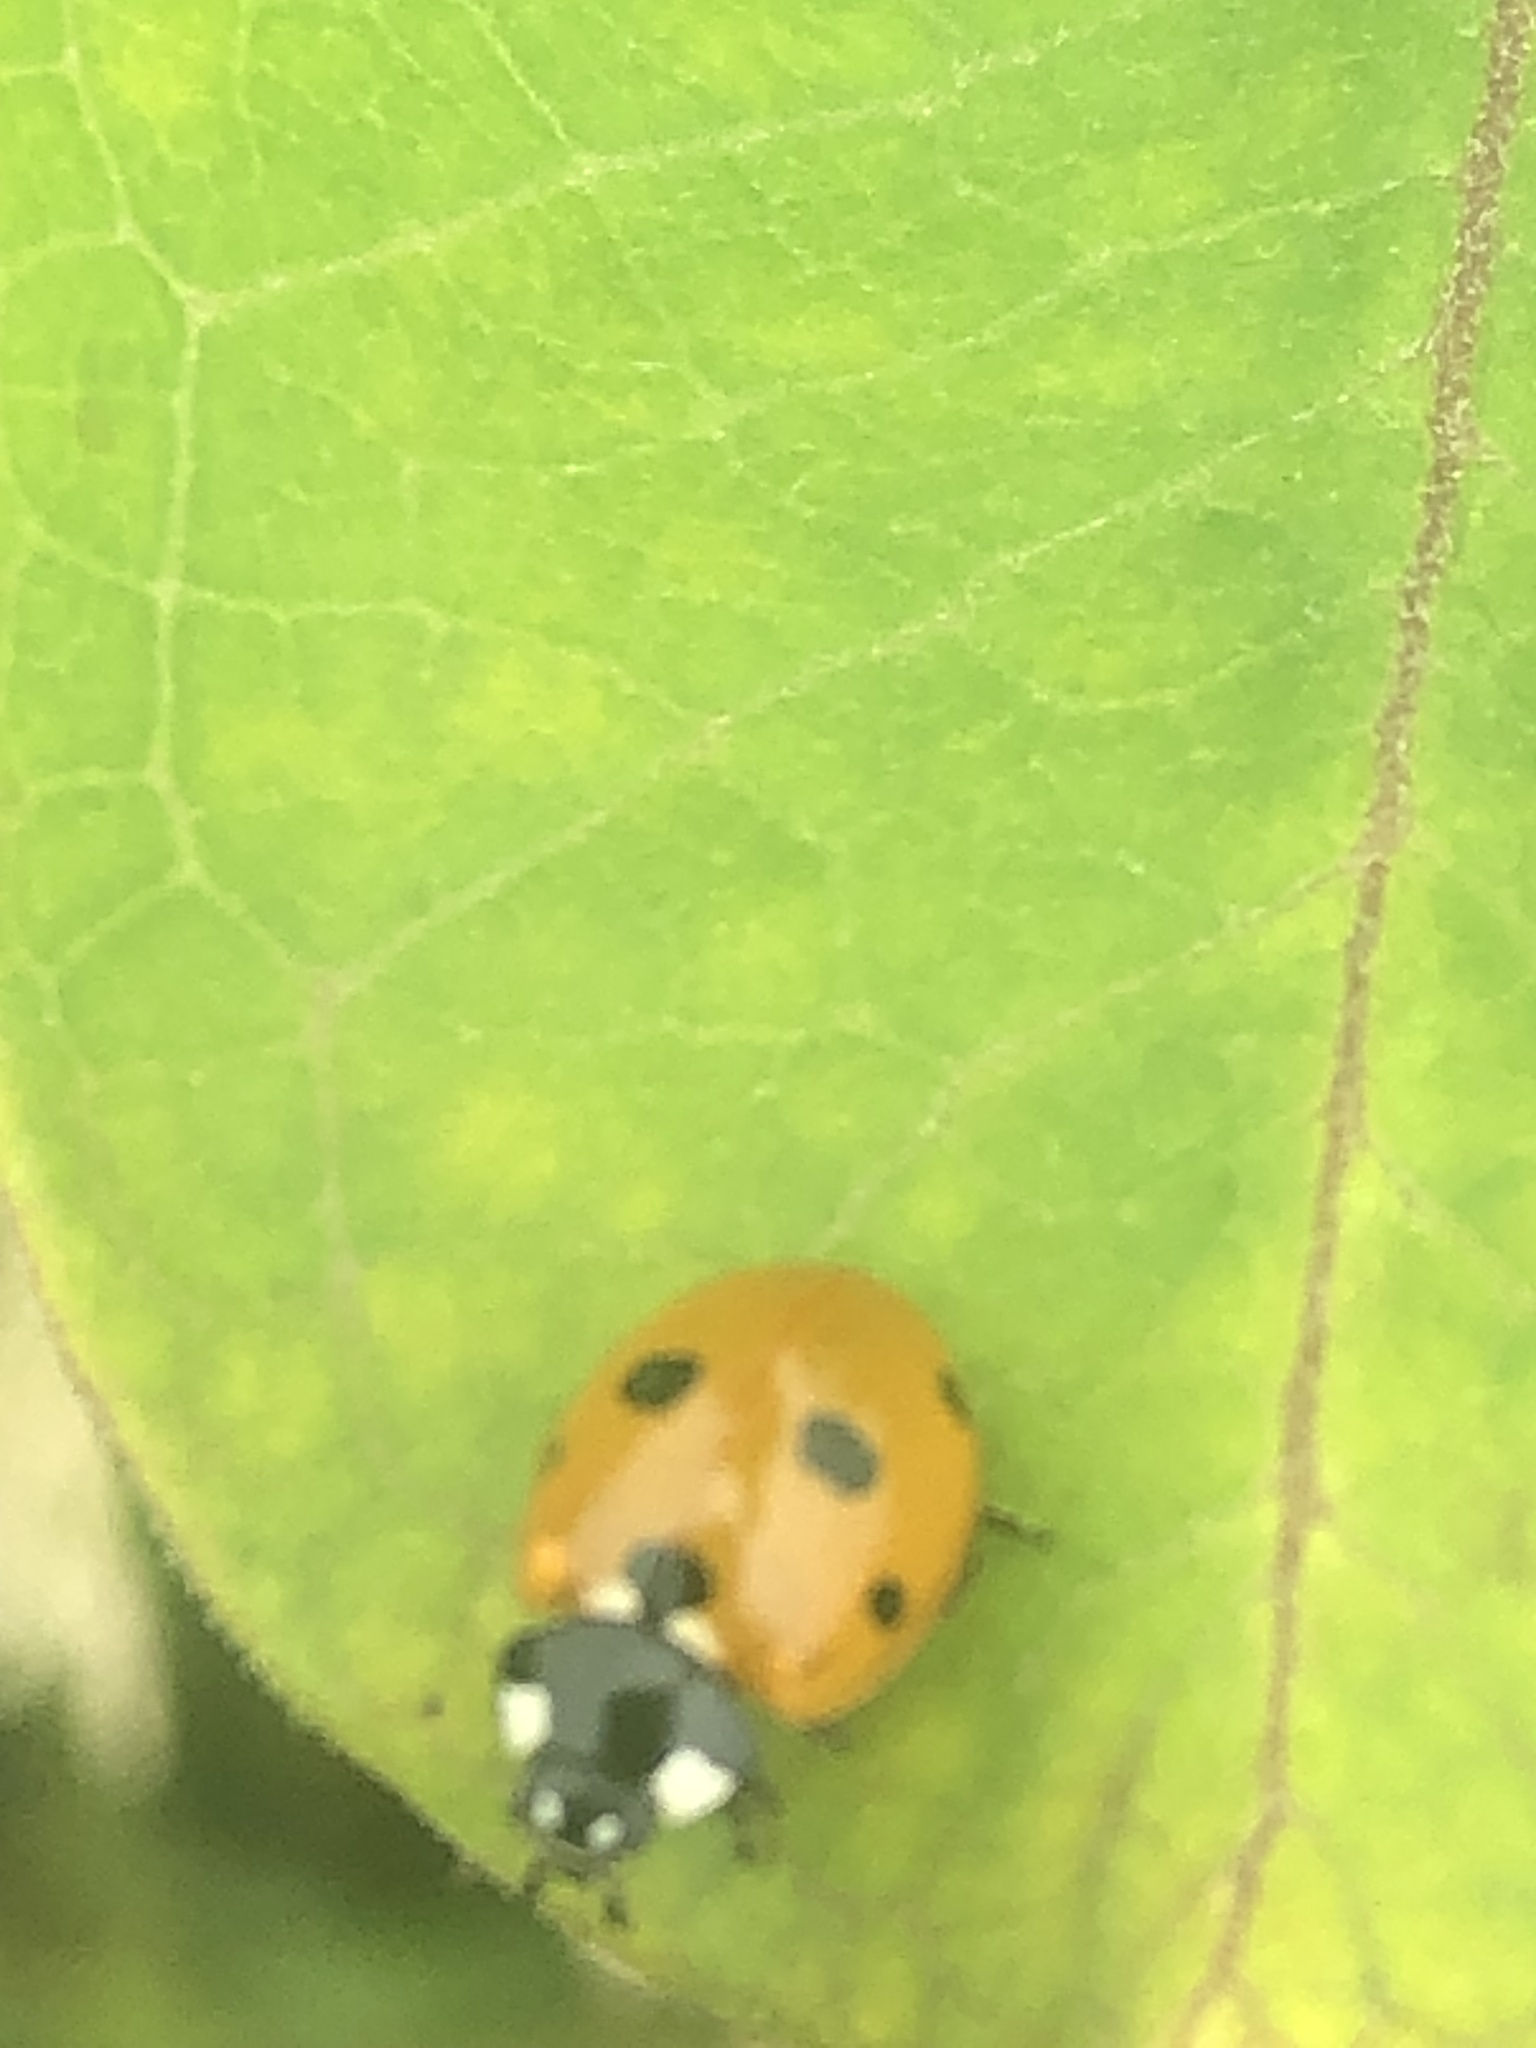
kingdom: Animalia
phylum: Arthropoda
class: Insecta
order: Coleoptera
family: Coccinellidae
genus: Coccinella
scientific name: Coccinella septempunctata
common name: Sevenspotted lady beetle
